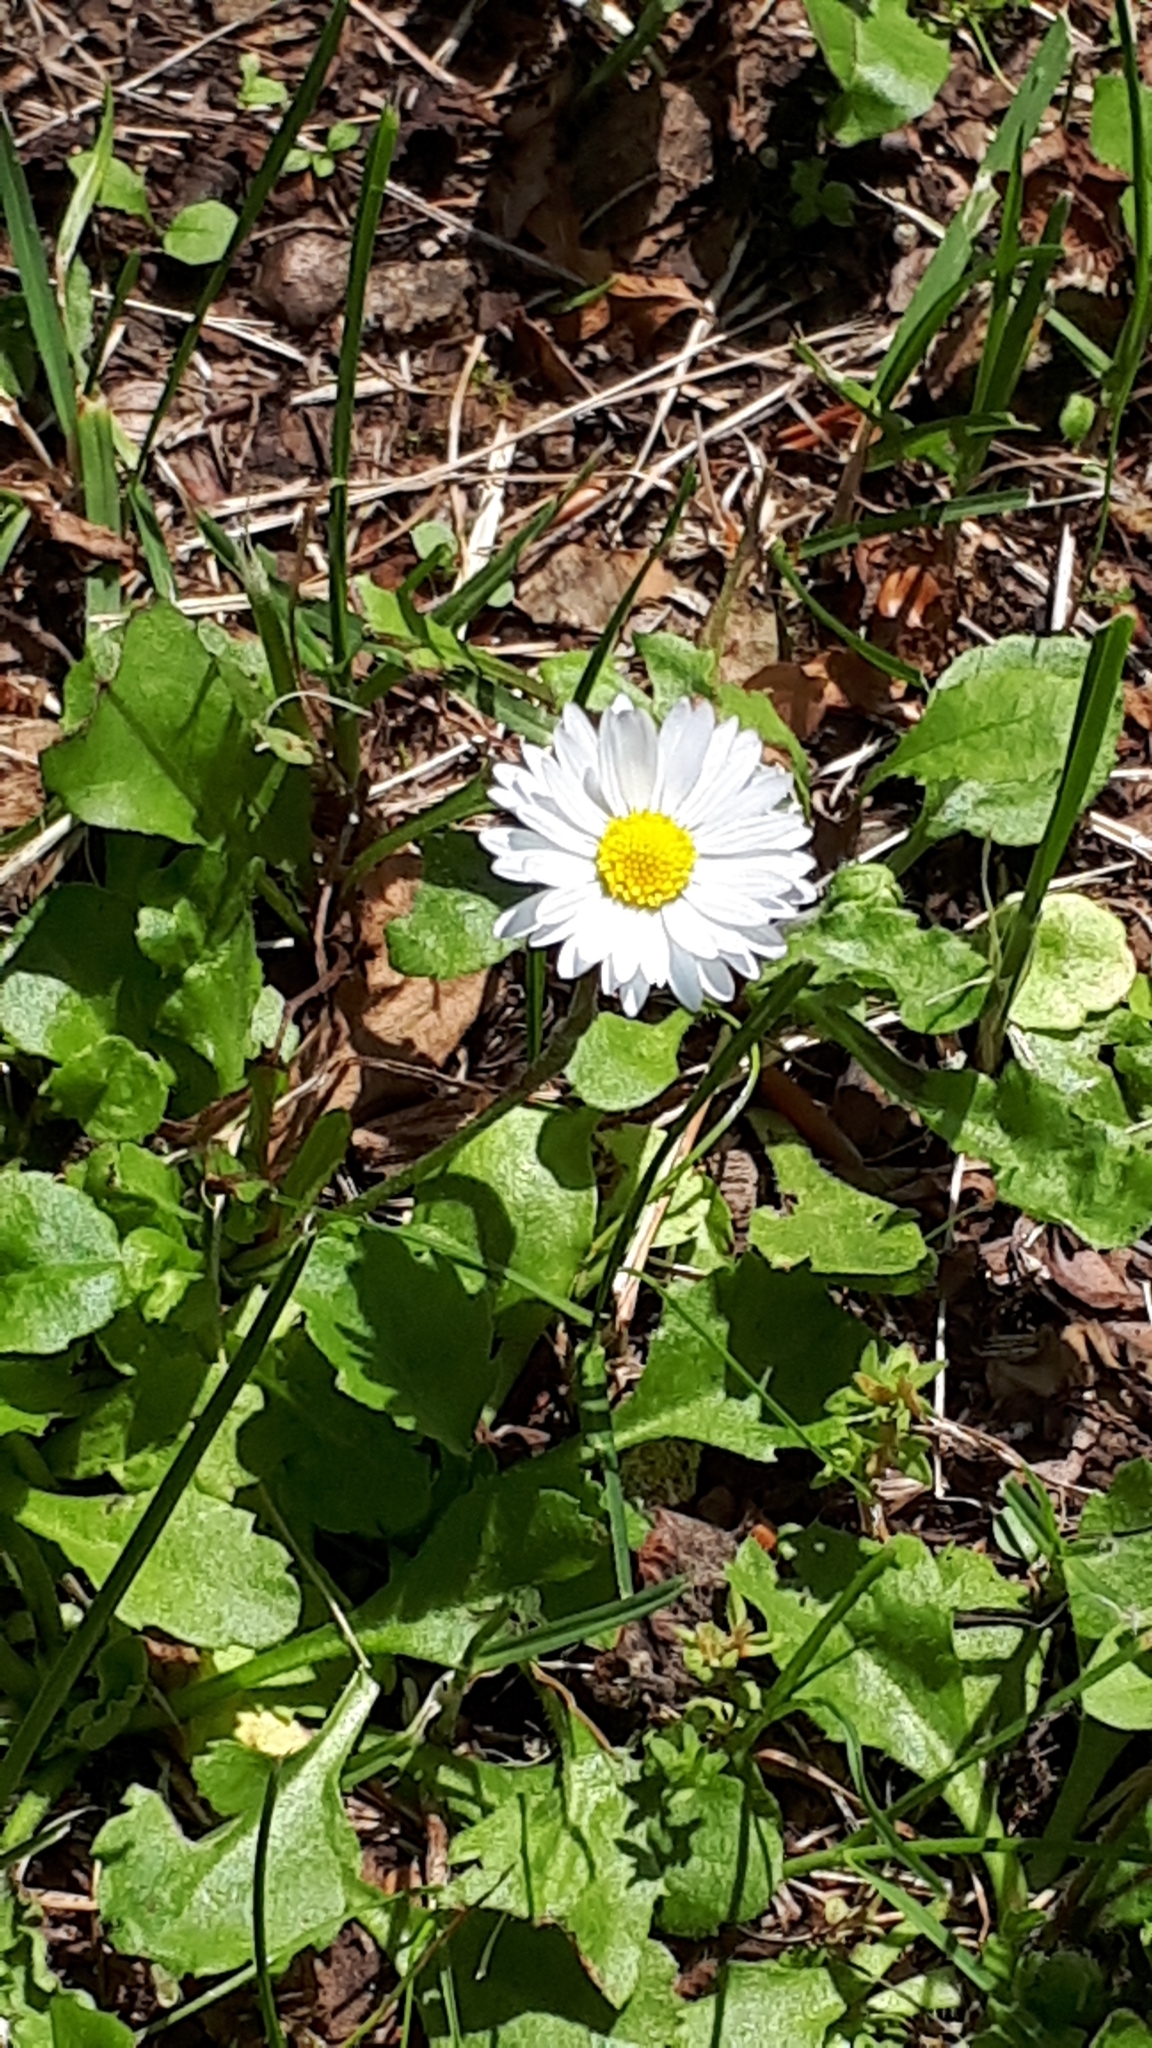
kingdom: Plantae
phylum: Tracheophyta
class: Magnoliopsida
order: Asterales
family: Asteraceae
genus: Bellis
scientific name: Bellis perennis
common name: Lawndaisy
